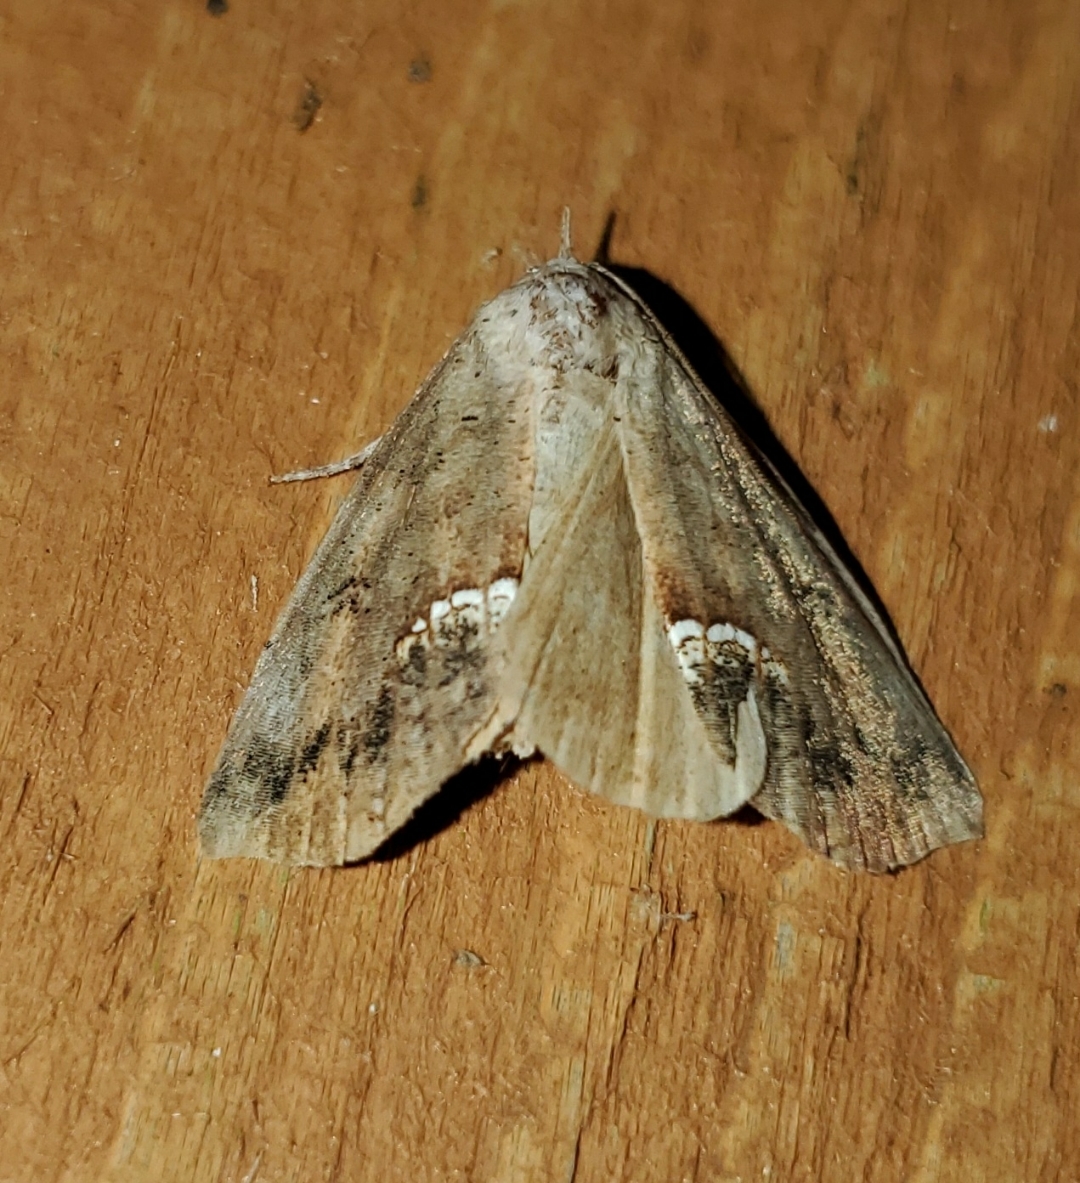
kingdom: Animalia
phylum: Arthropoda
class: Insecta
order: Lepidoptera
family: Erebidae
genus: Hypsoropha
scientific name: Hypsoropha hormos
